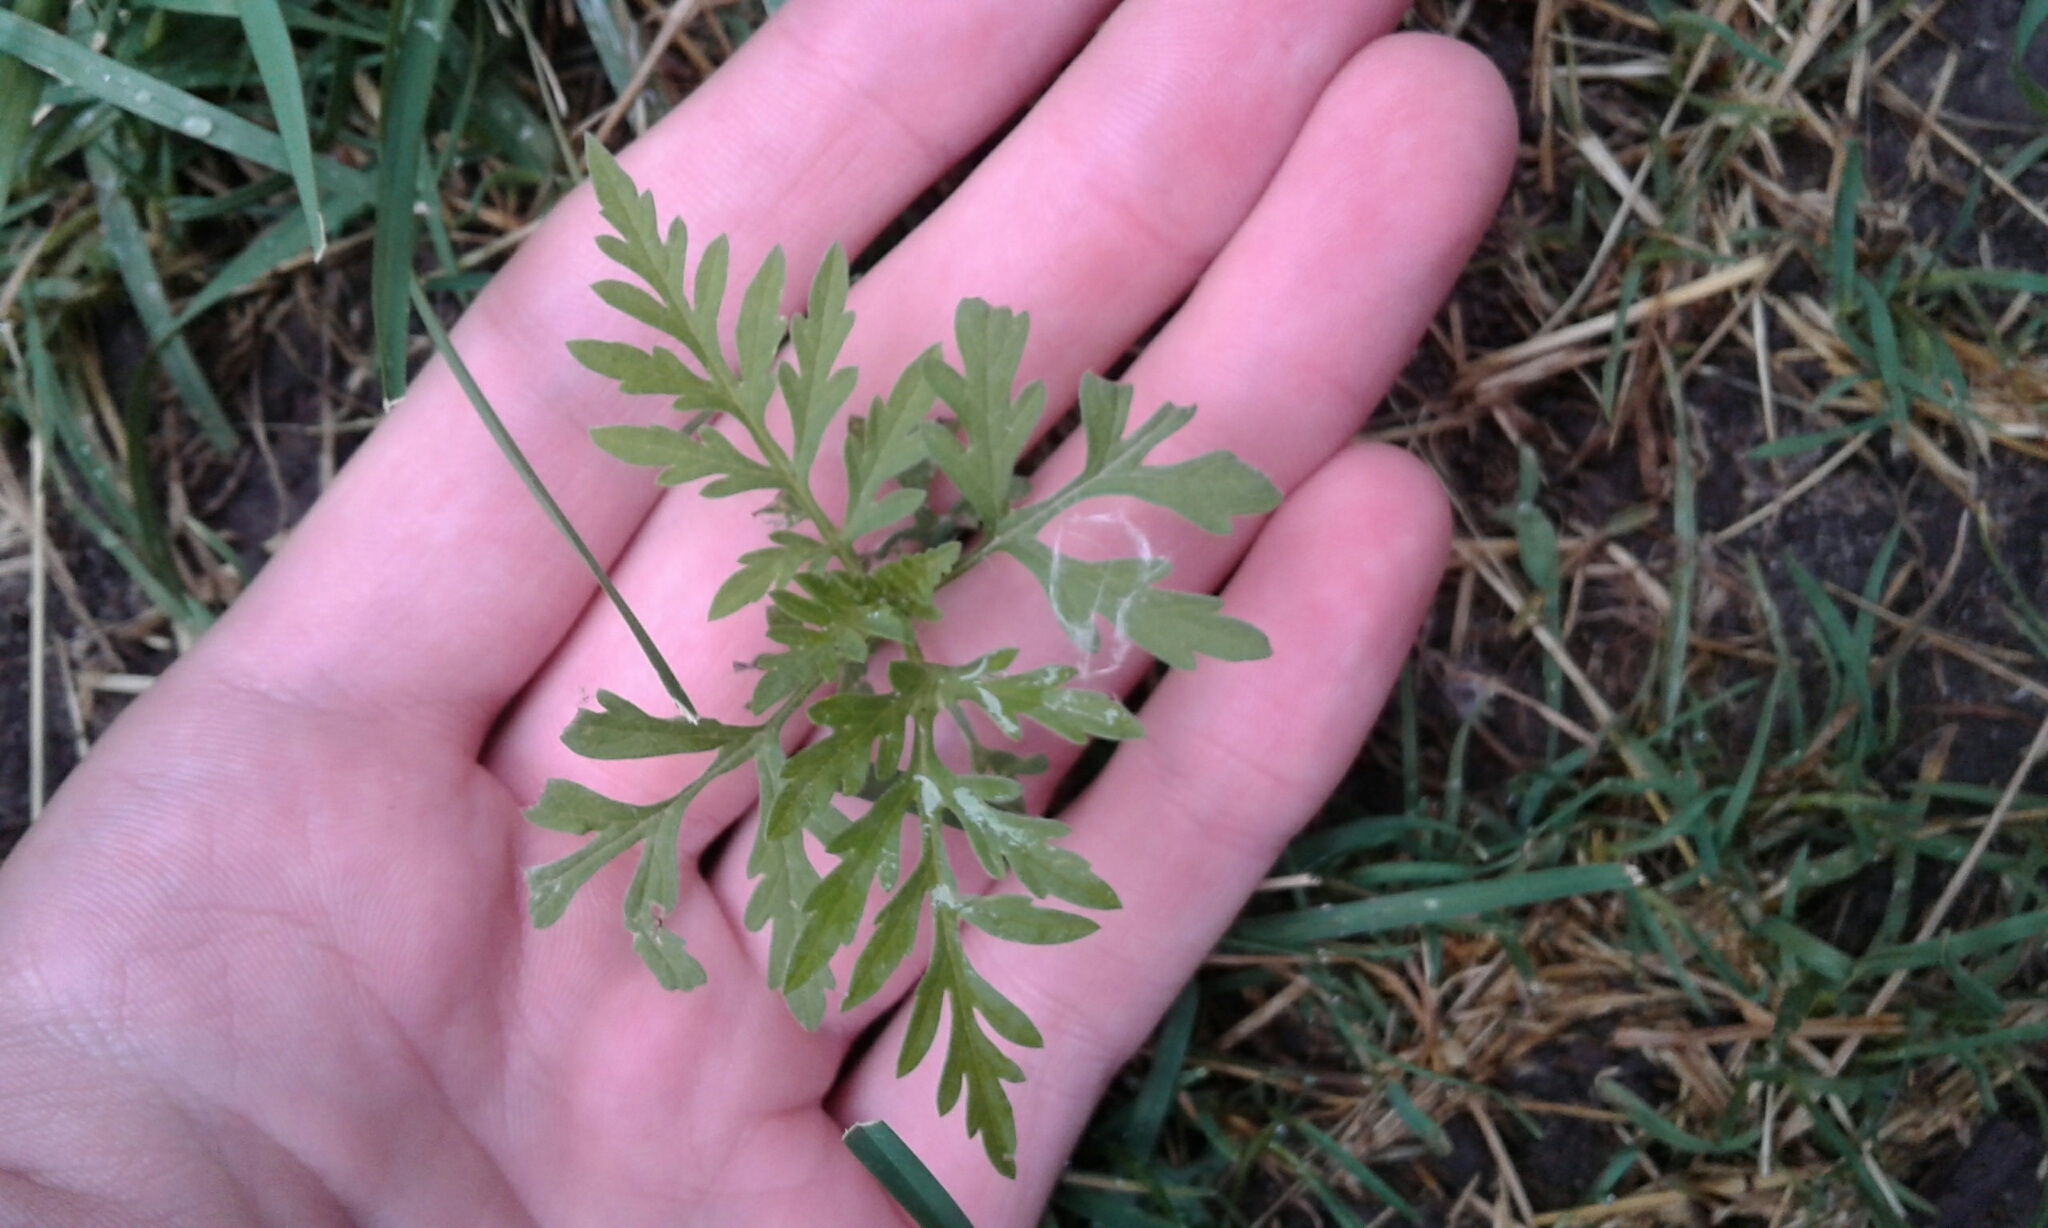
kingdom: Plantae
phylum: Tracheophyta
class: Magnoliopsida
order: Asterales
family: Asteraceae
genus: Ambrosia
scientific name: Ambrosia artemisiifolia
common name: Annual ragweed
